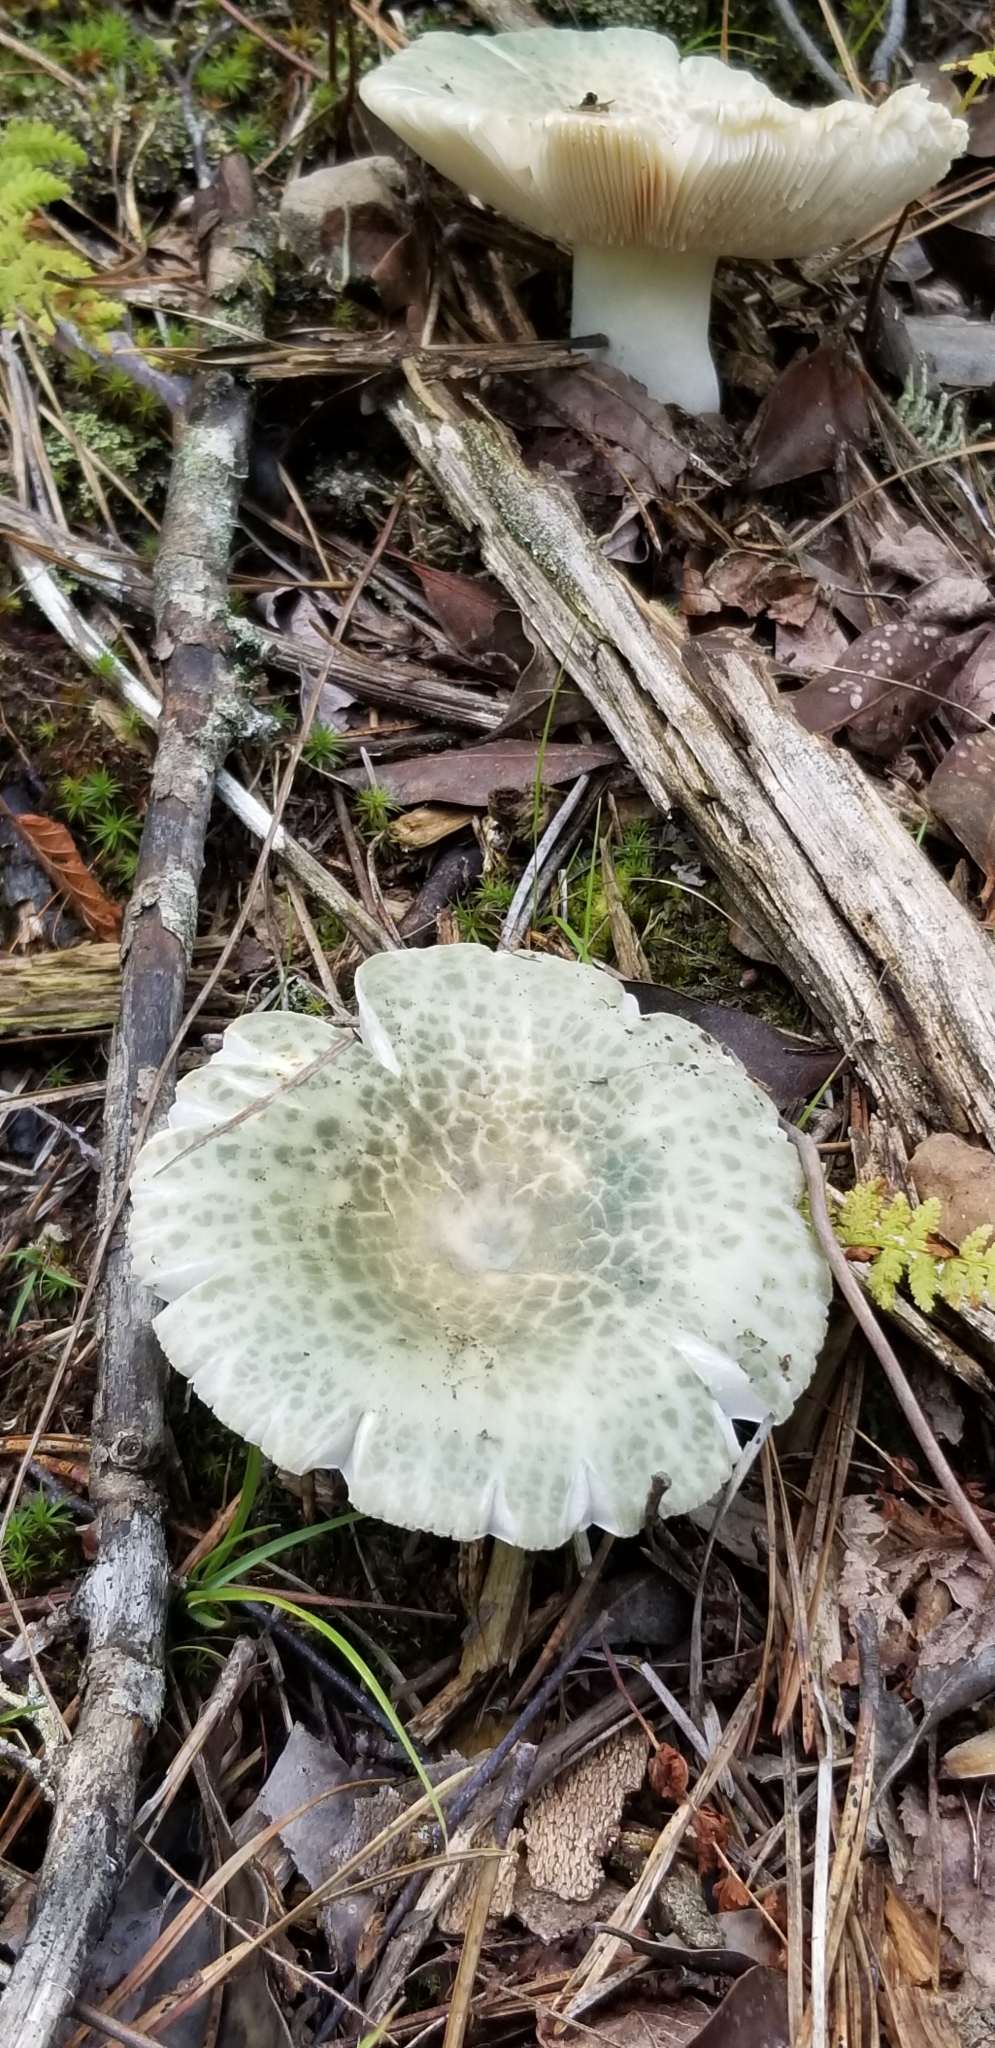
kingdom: Fungi
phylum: Basidiomycota
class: Agaricomycetes
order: Russulales
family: Russulaceae
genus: Russula
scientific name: Russula parvovirescens
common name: Blue-green cracking russula
